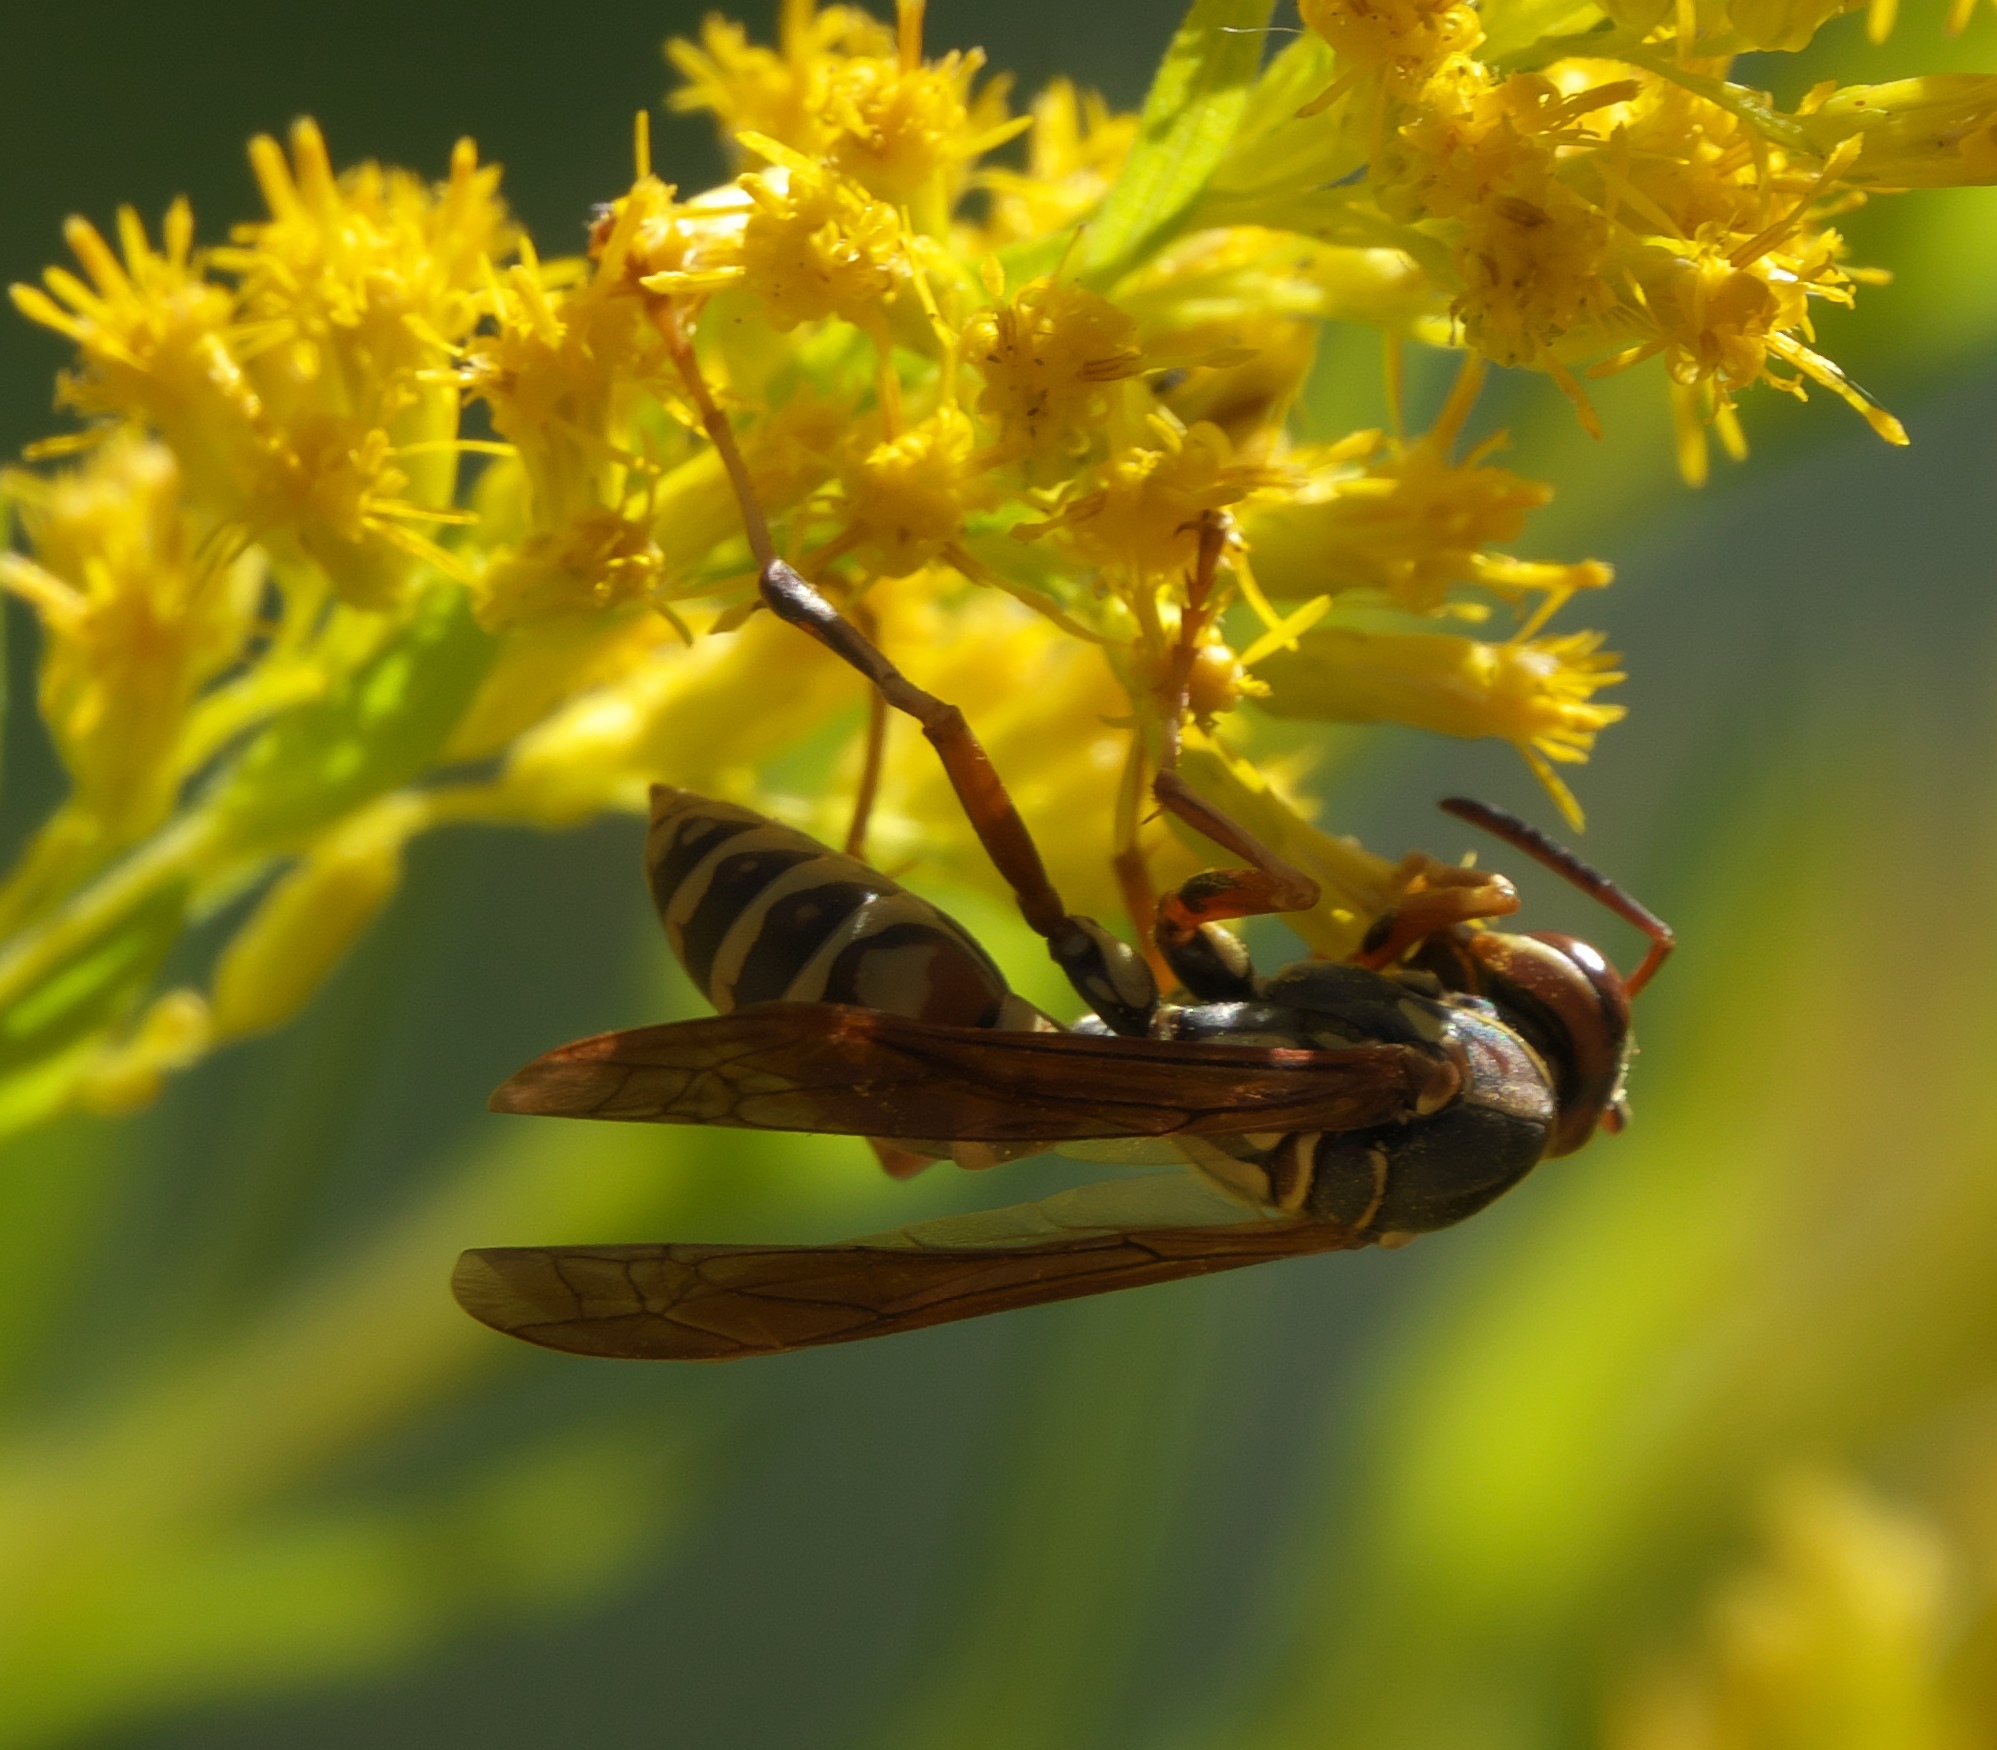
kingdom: Animalia
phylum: Arthropoda
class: Insecta
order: Hymenoptera
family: Eumenidae
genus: Polistes
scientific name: Polistes fuscatus
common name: Dark paper wasp
